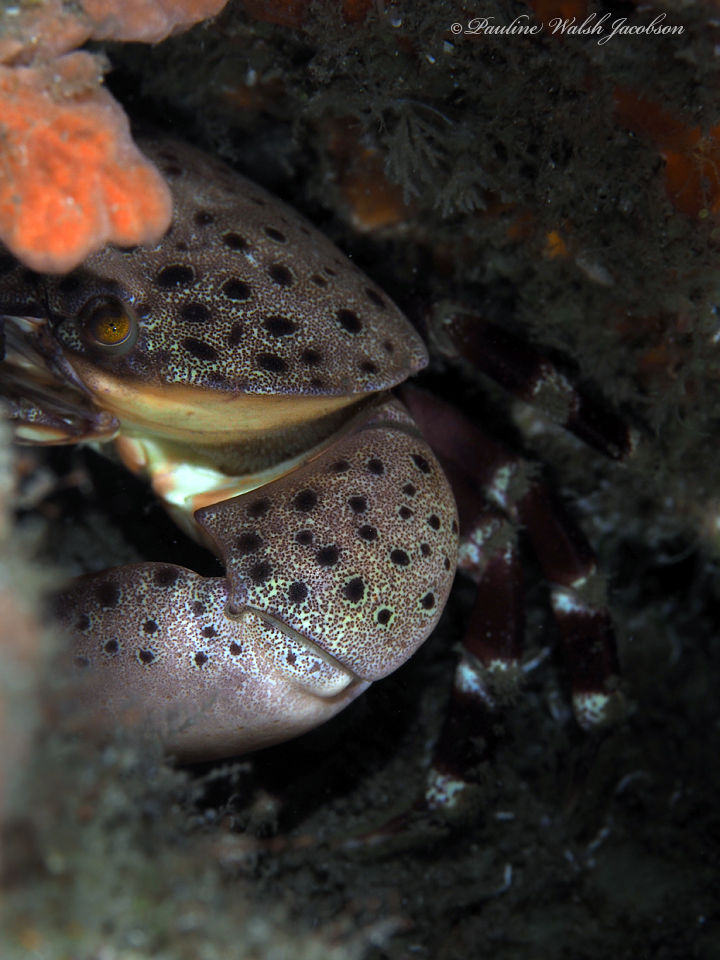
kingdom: Animalia
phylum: Arthropoda
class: Malacostraca
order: Decapoda
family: Menippidae
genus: Menippe
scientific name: Menippe mercenaria
